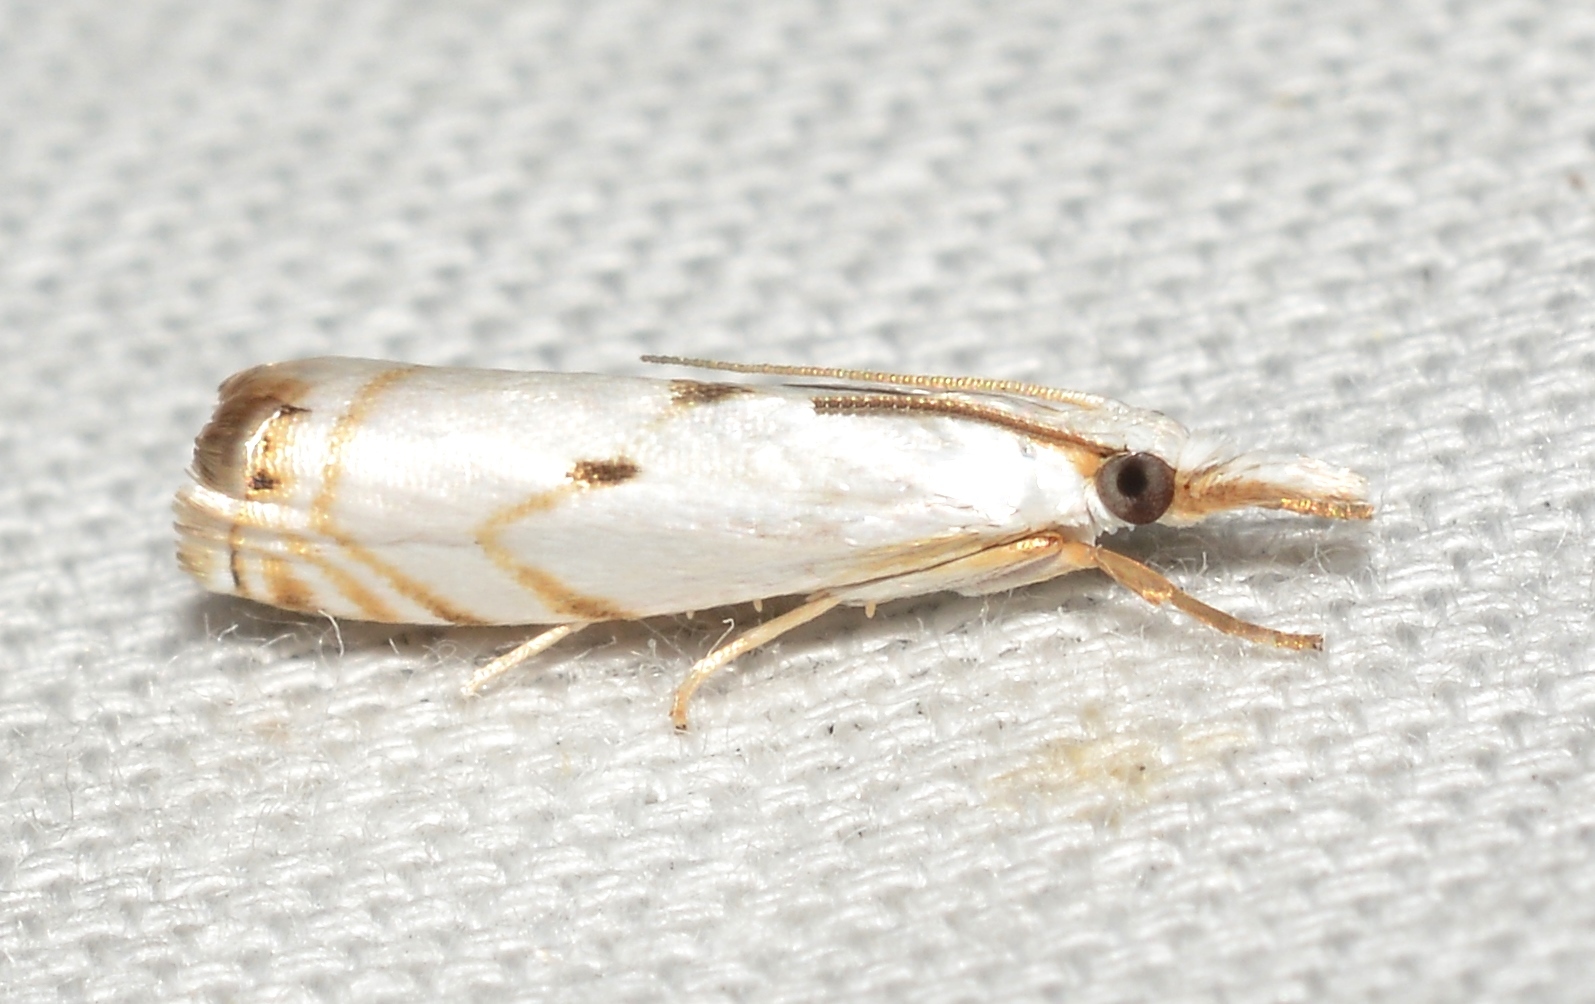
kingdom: Animalia
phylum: Arthropoda
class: Insecta
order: Lepidoptera
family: Crambidae
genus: Microcrambus
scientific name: Microcrambus biguttellus
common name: Gold-stripe grass-veneer moth
